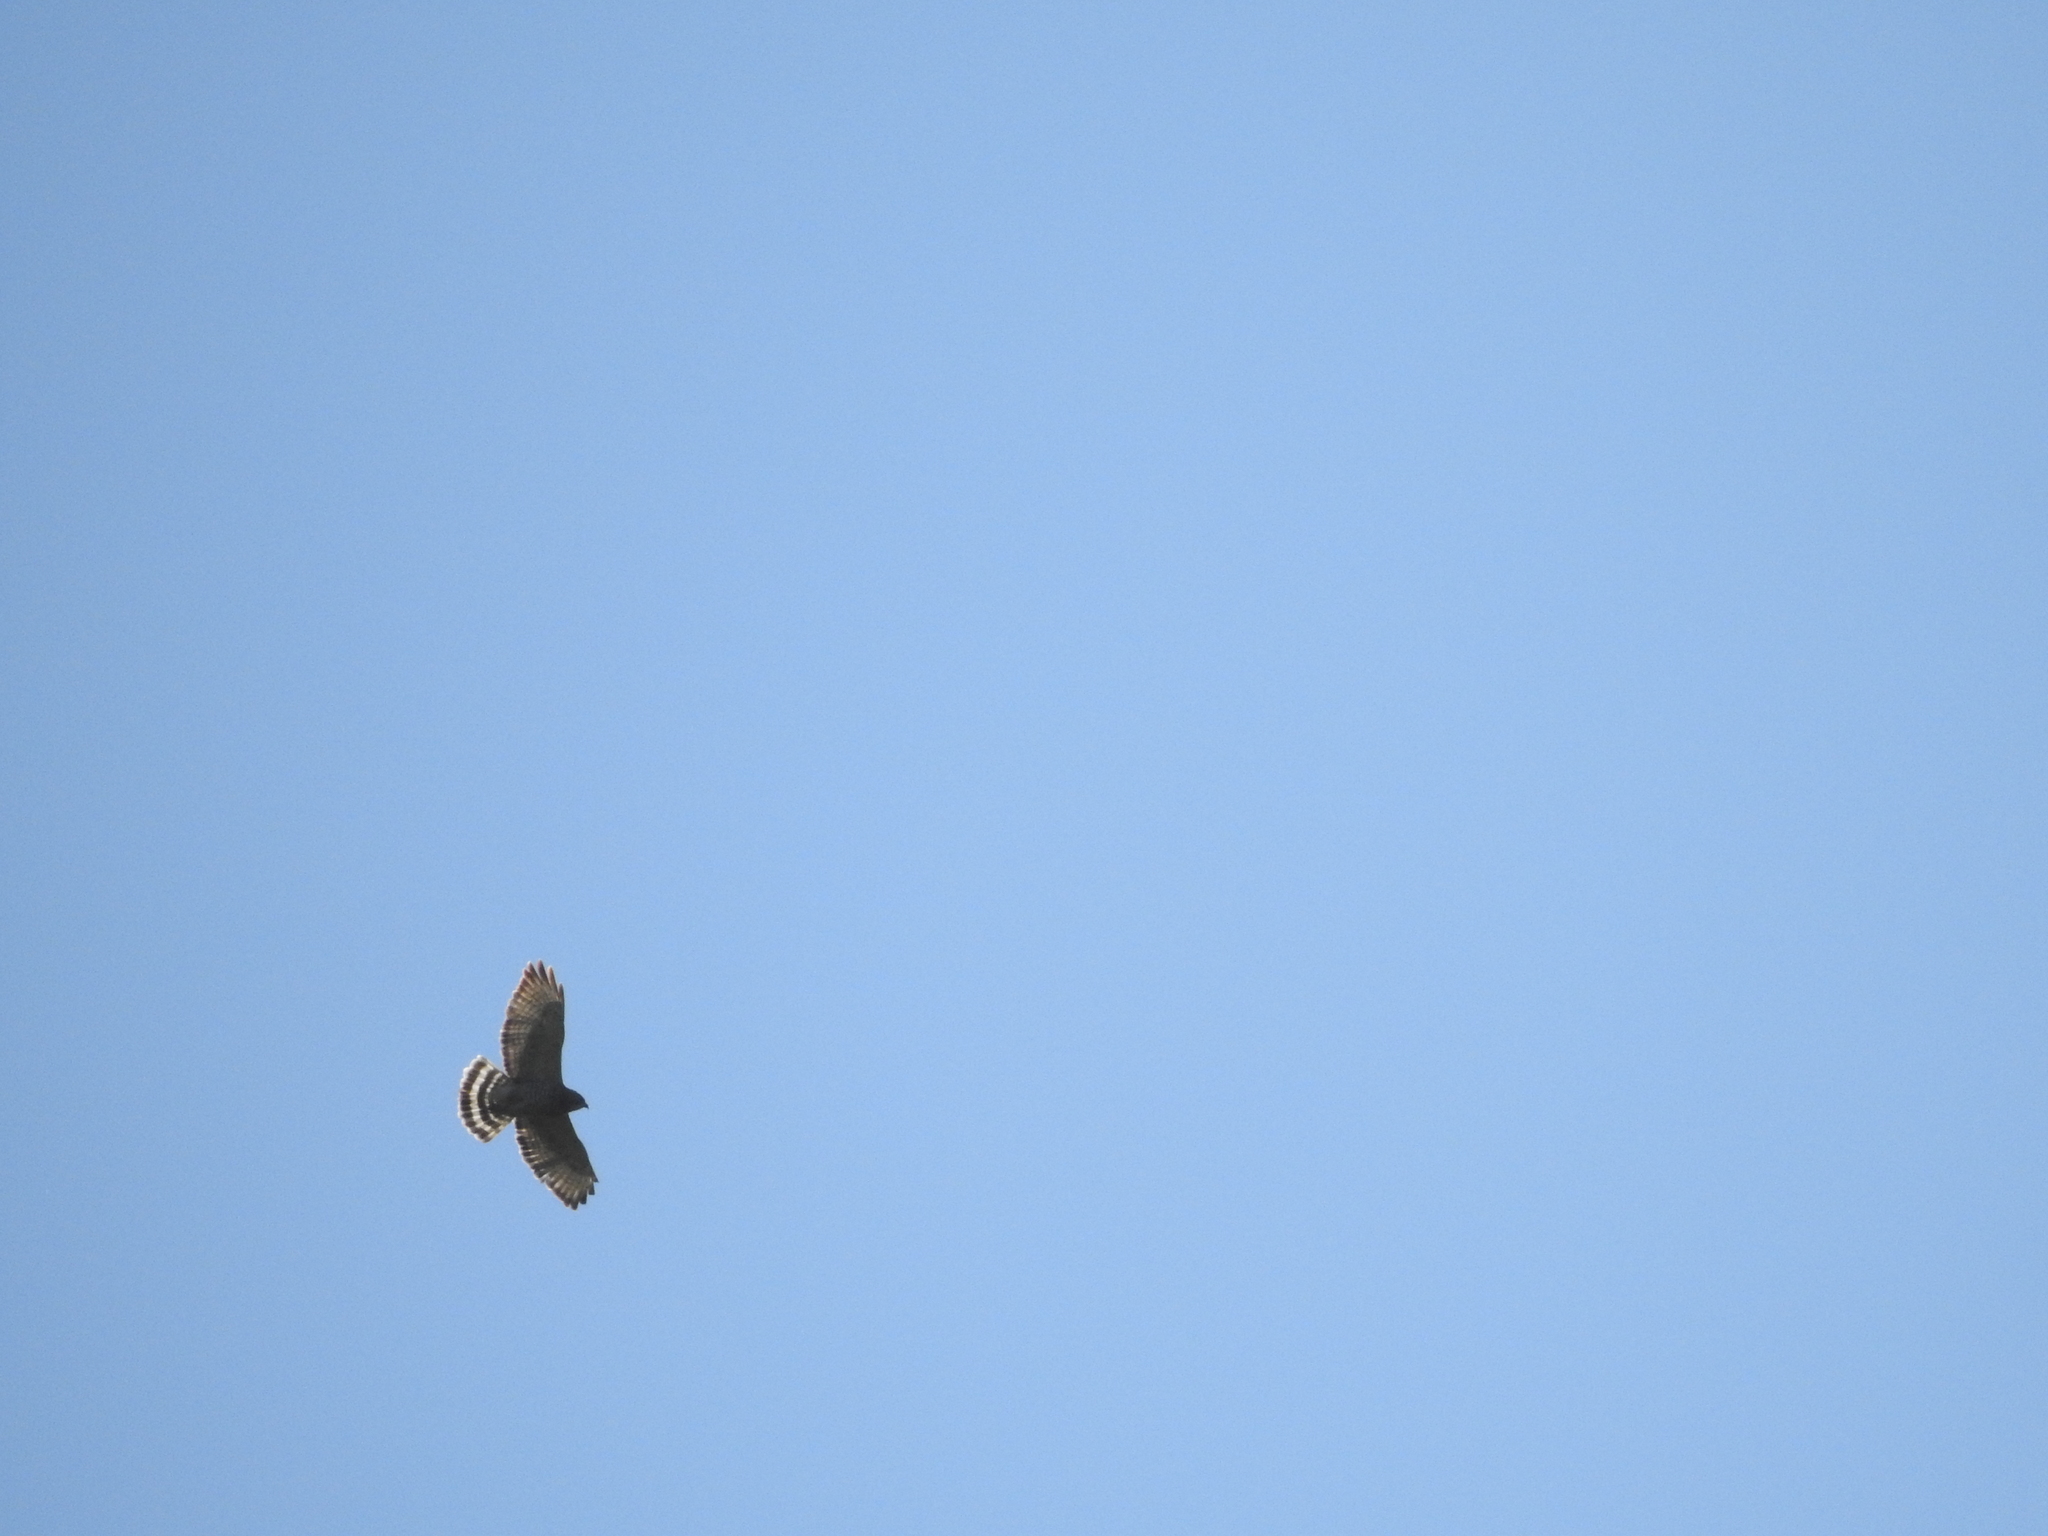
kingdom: Animalia
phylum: Chordata
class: Aves
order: Accipitriformes
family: Accipitridae
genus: Buteo
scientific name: Buteo platypterus
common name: Broad-winged hawk
